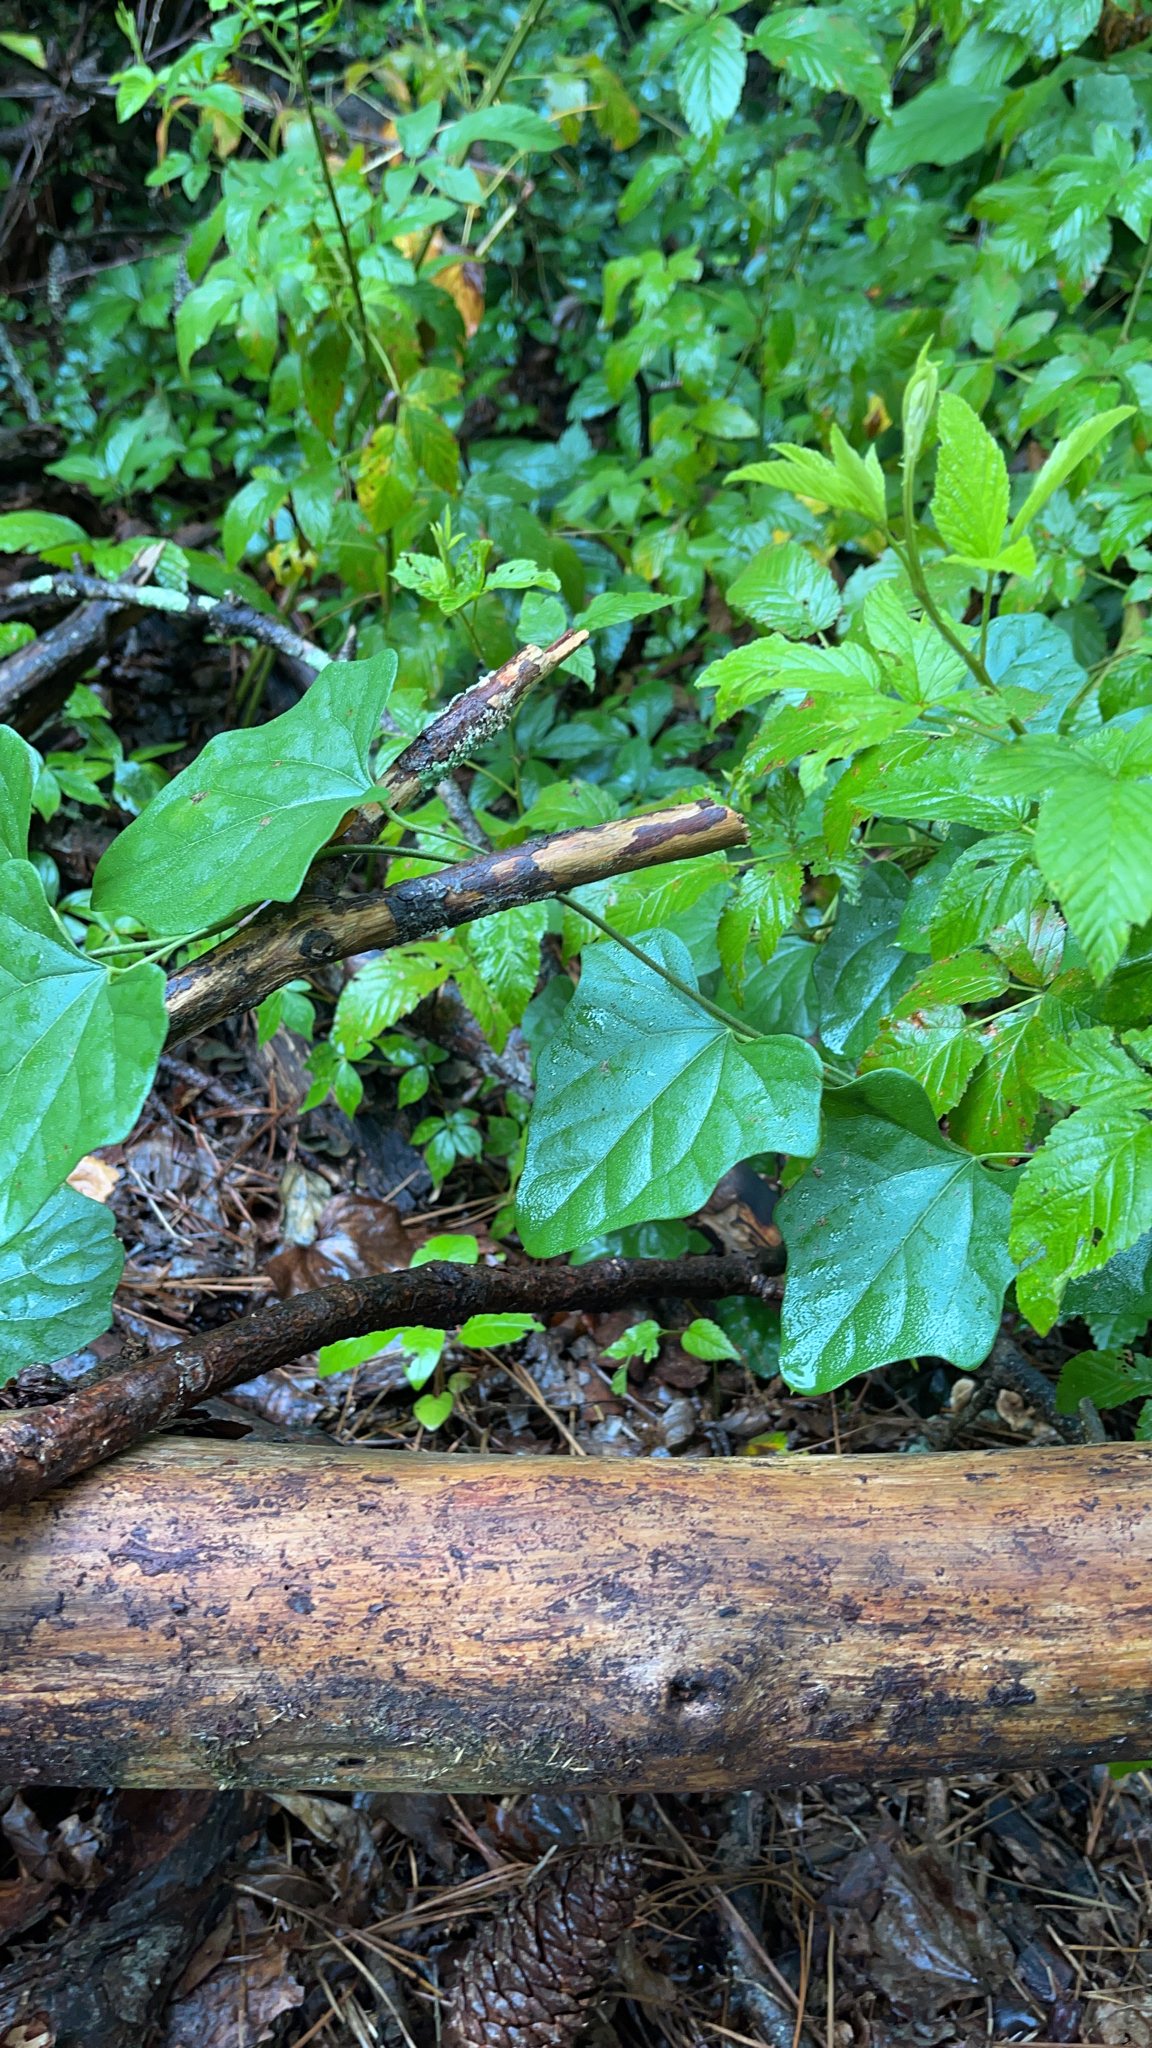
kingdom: Plantae
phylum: Tracheophyta
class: Magnoliopsida
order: Ranunculales
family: Menispermaceae
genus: Cocculus
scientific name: Cocculus carolinus
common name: Carolina moonseed
